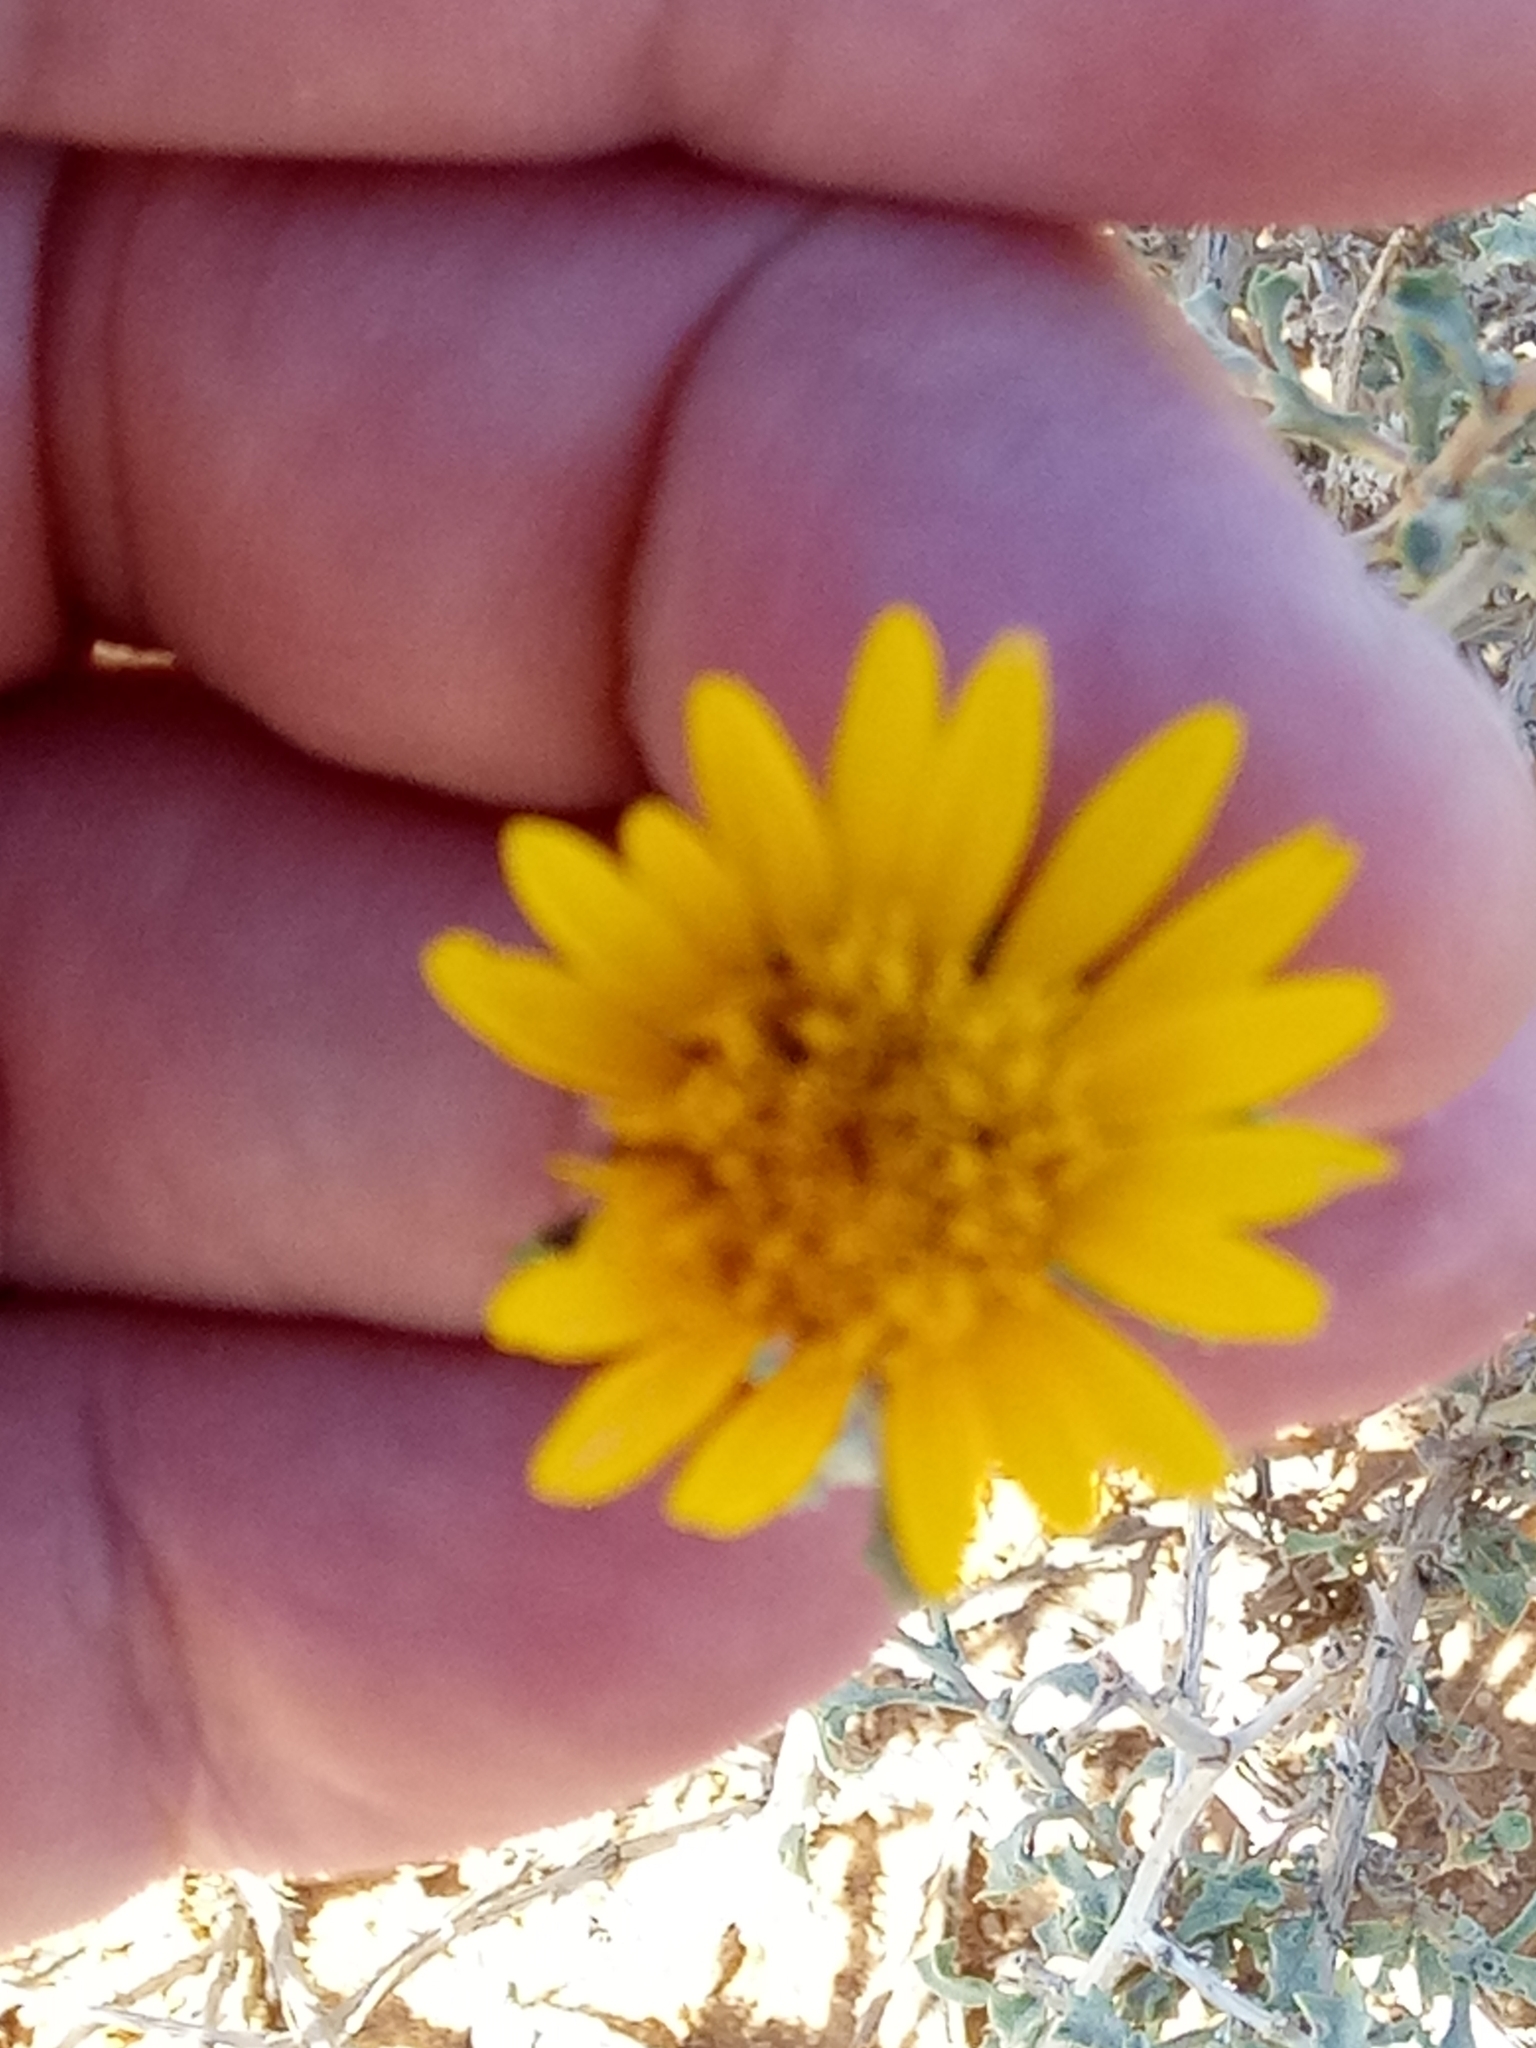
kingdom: Plantae
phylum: Tracheophyta
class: Magnoliopsida
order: Asterales
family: Asteraceae
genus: Anvillea
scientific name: Anvillea garcinii
